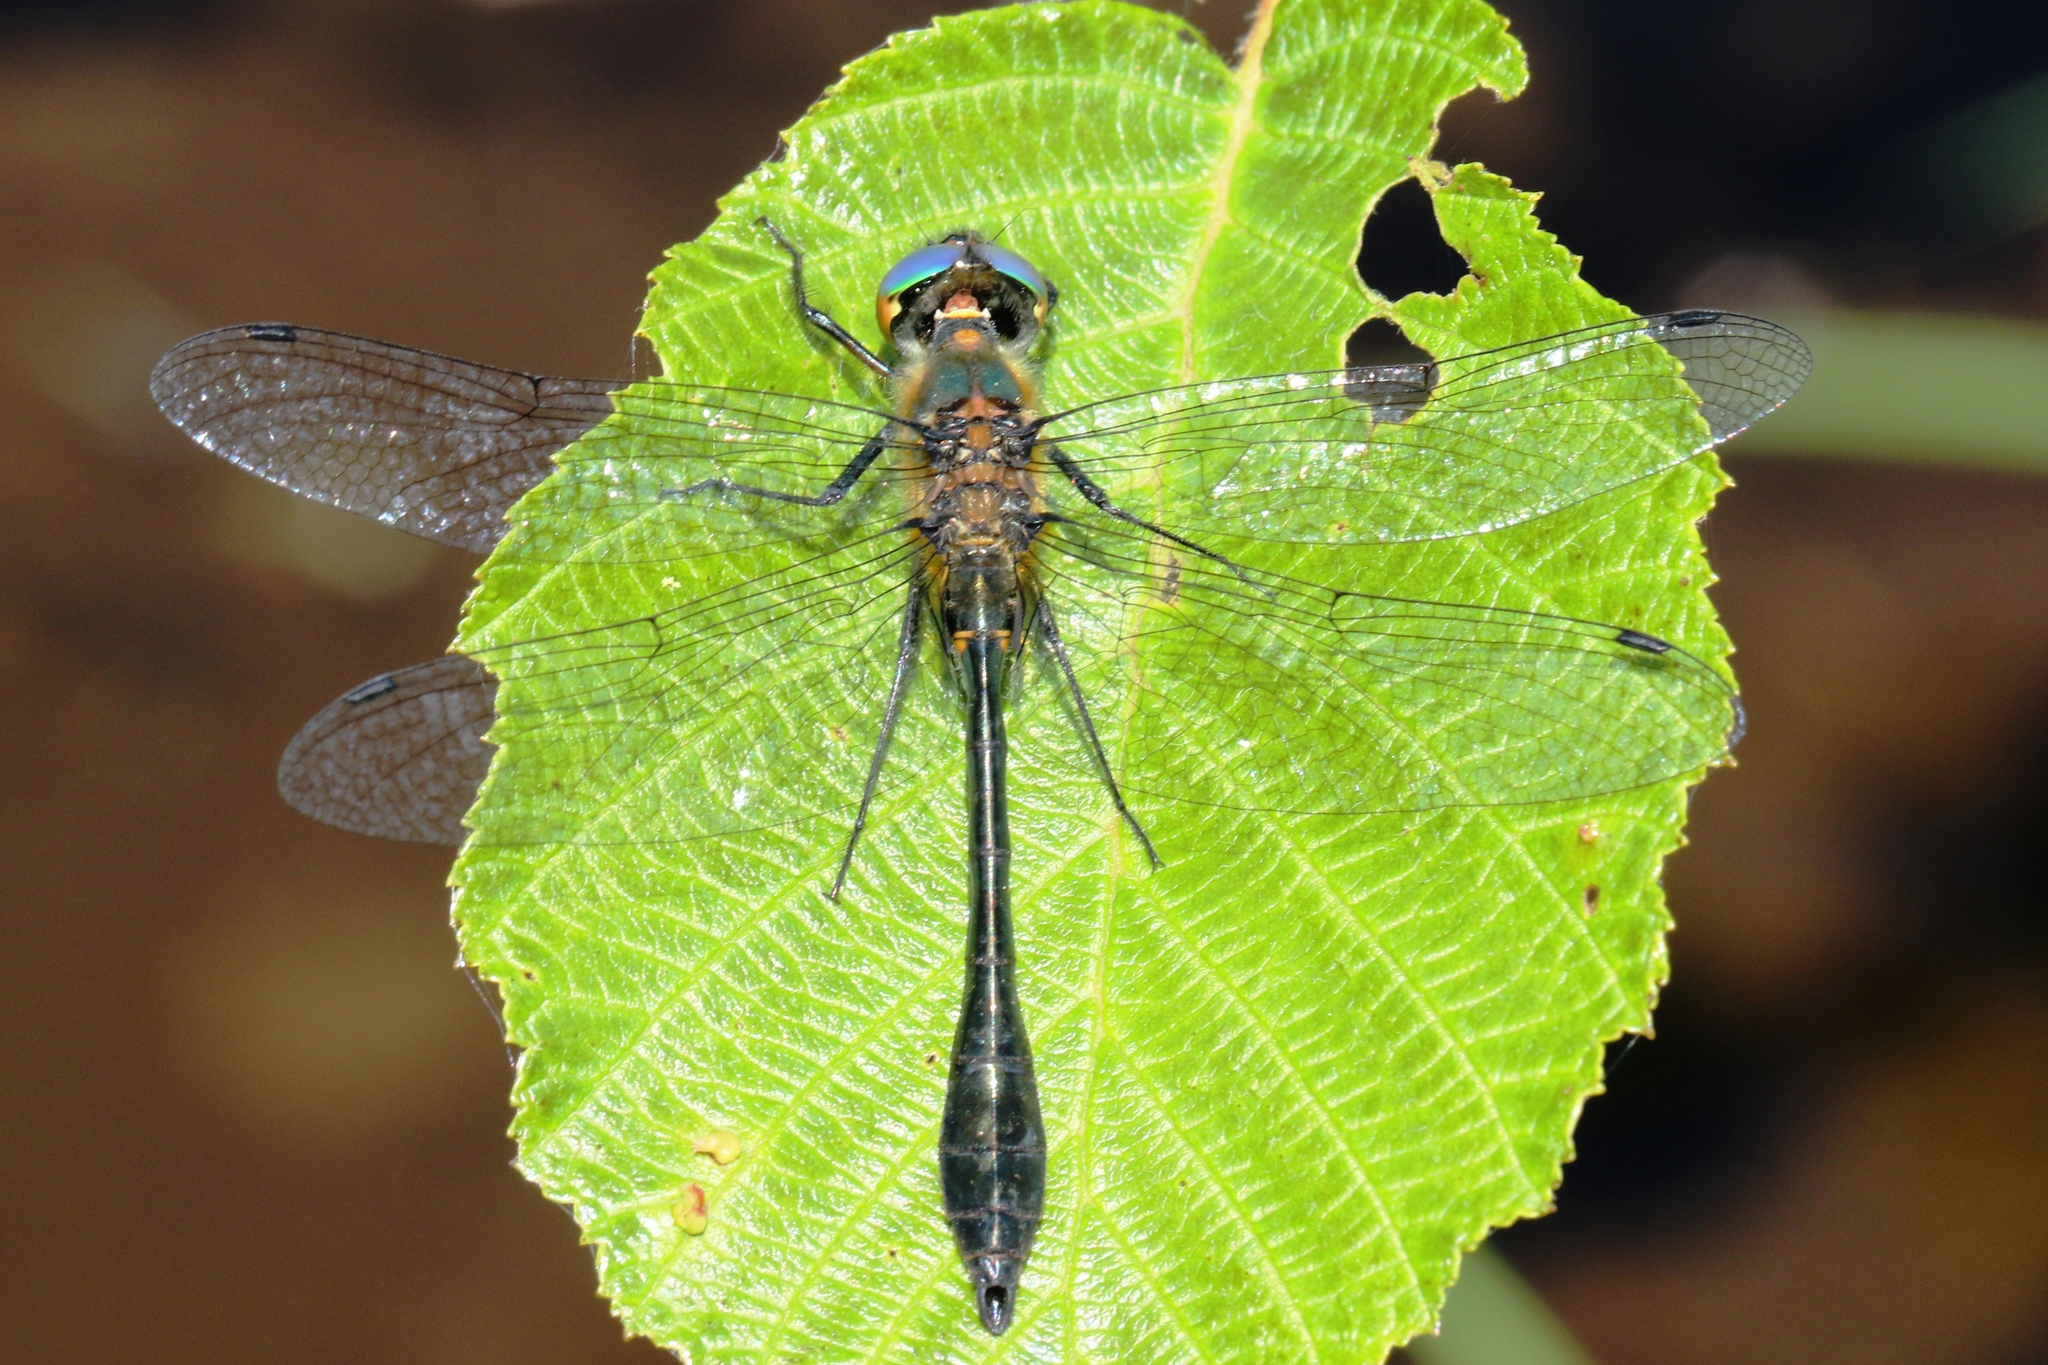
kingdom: Animalia
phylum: Arthropoda
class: Insecta
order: Odonata
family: Corduliidae
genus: Dorocordulia
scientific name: Dorocordulia libera
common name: Racket-tailed emerald
